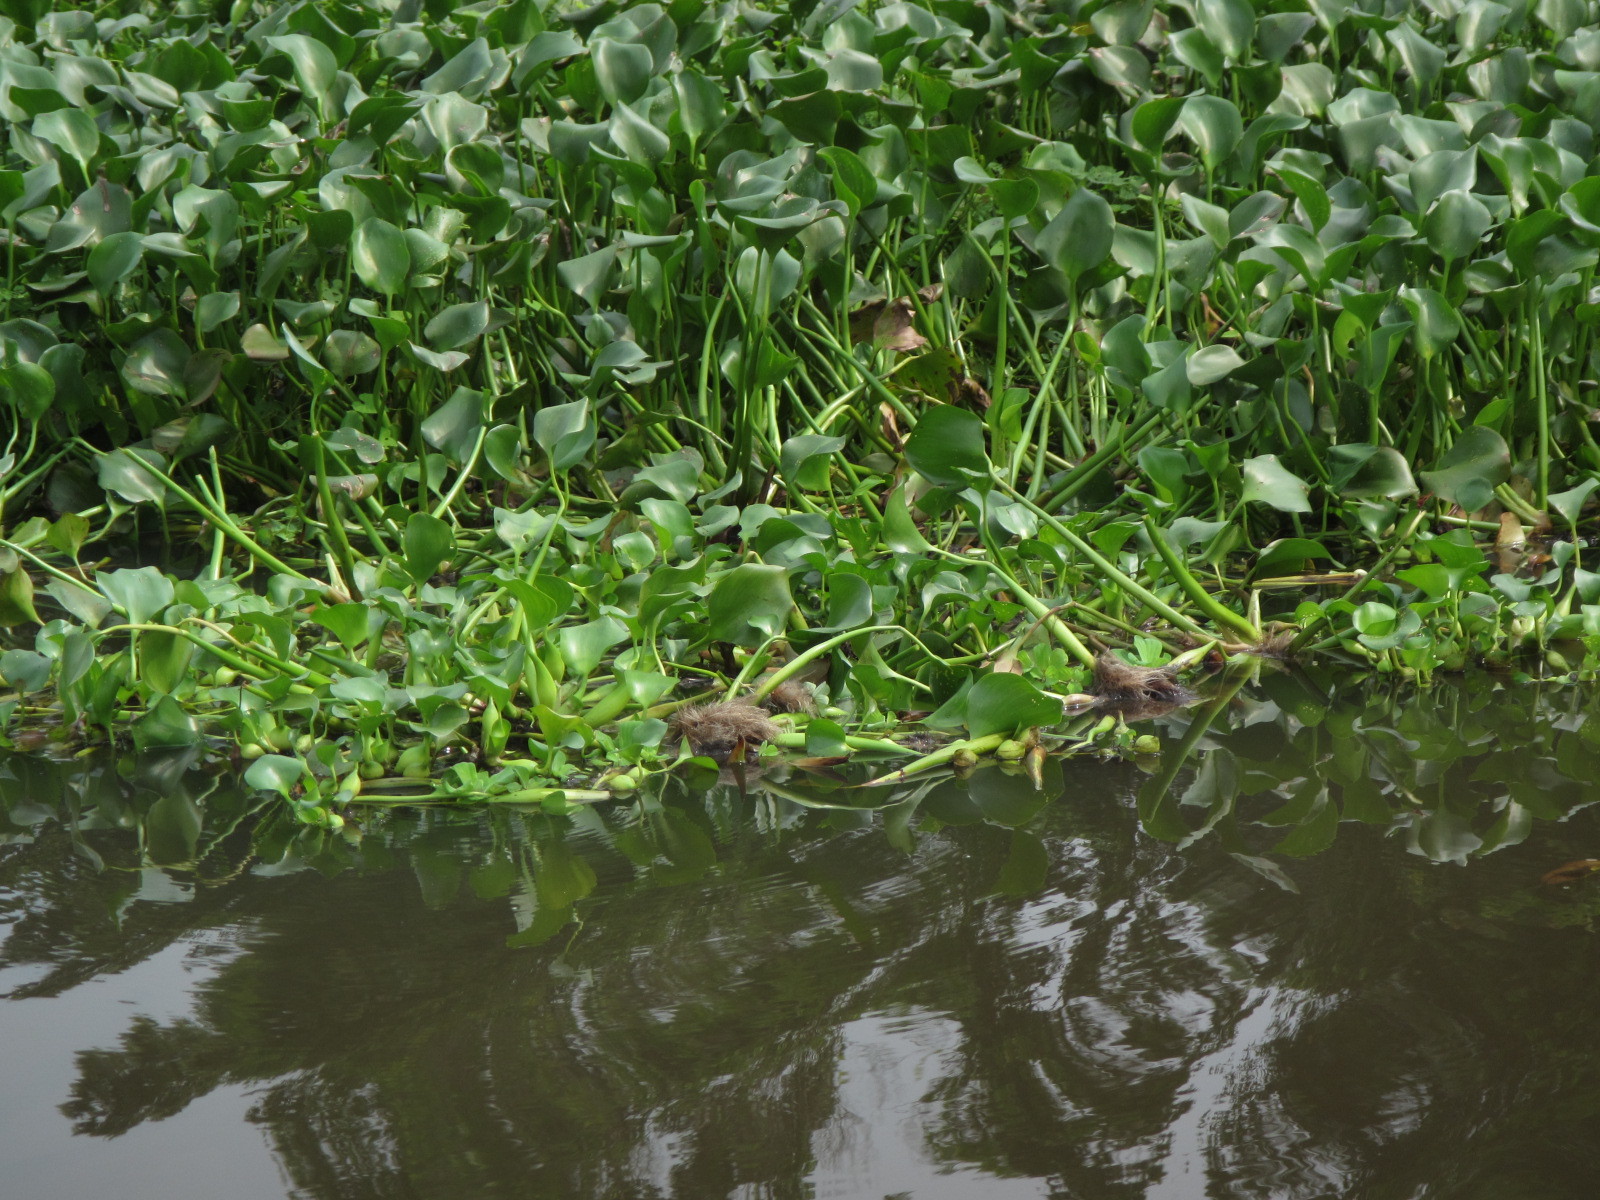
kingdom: Plantae
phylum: Tracheophyta
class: Liliopsida
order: Commelinales
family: Pontederiaceae
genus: Pontederia
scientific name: Pontederia crassipes
